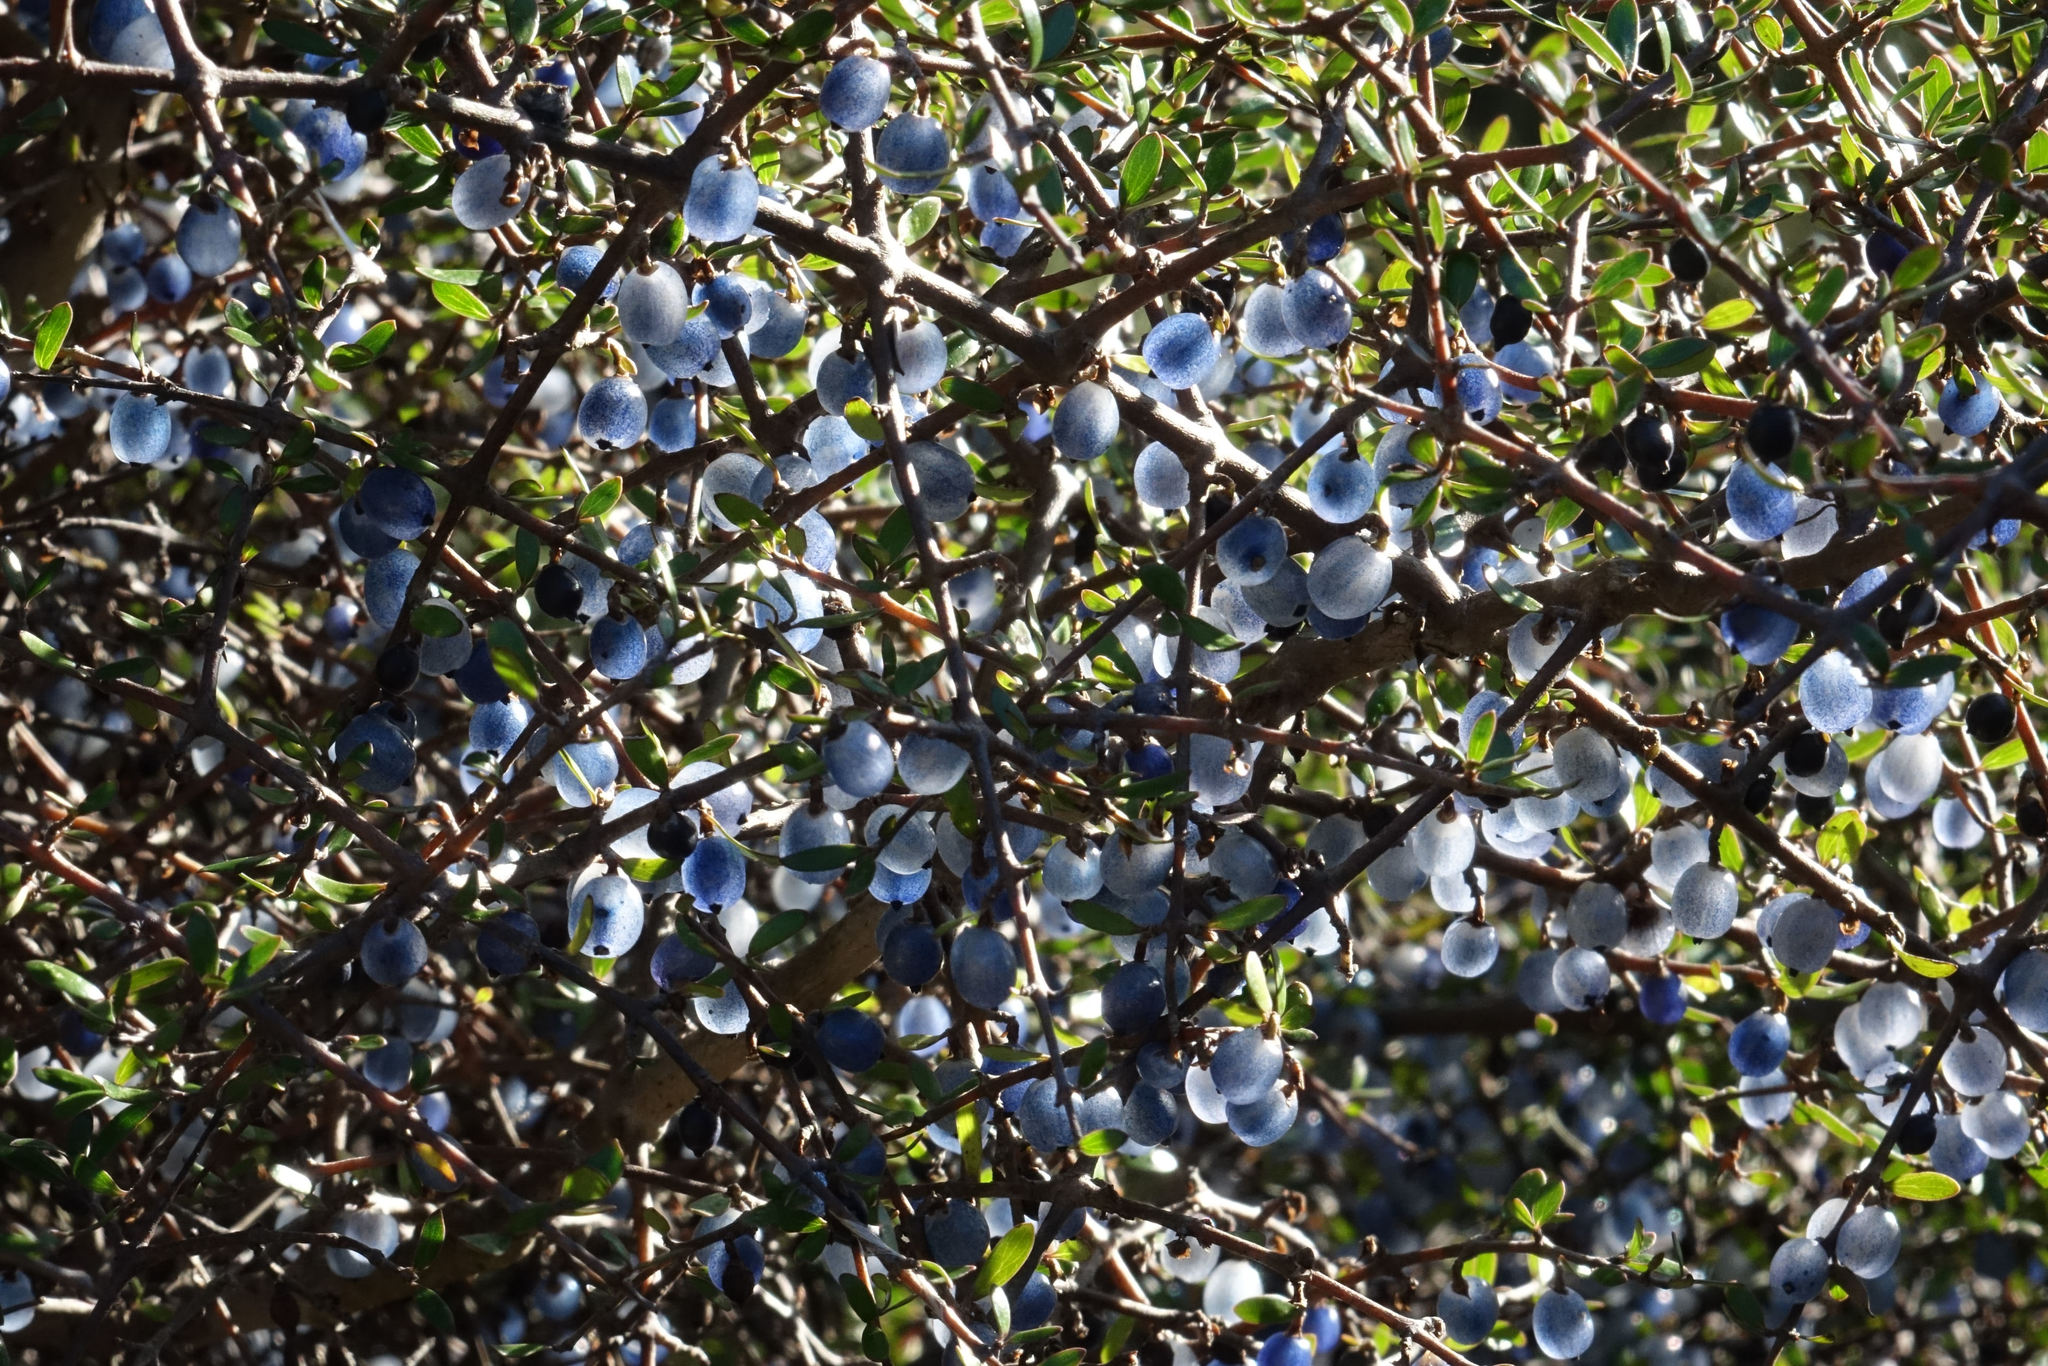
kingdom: Plantae
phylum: Tracheophyta
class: Magnoliopsida
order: Gentianales
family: Rubiaceae
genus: Coprosma
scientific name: Coprosma propinqua
